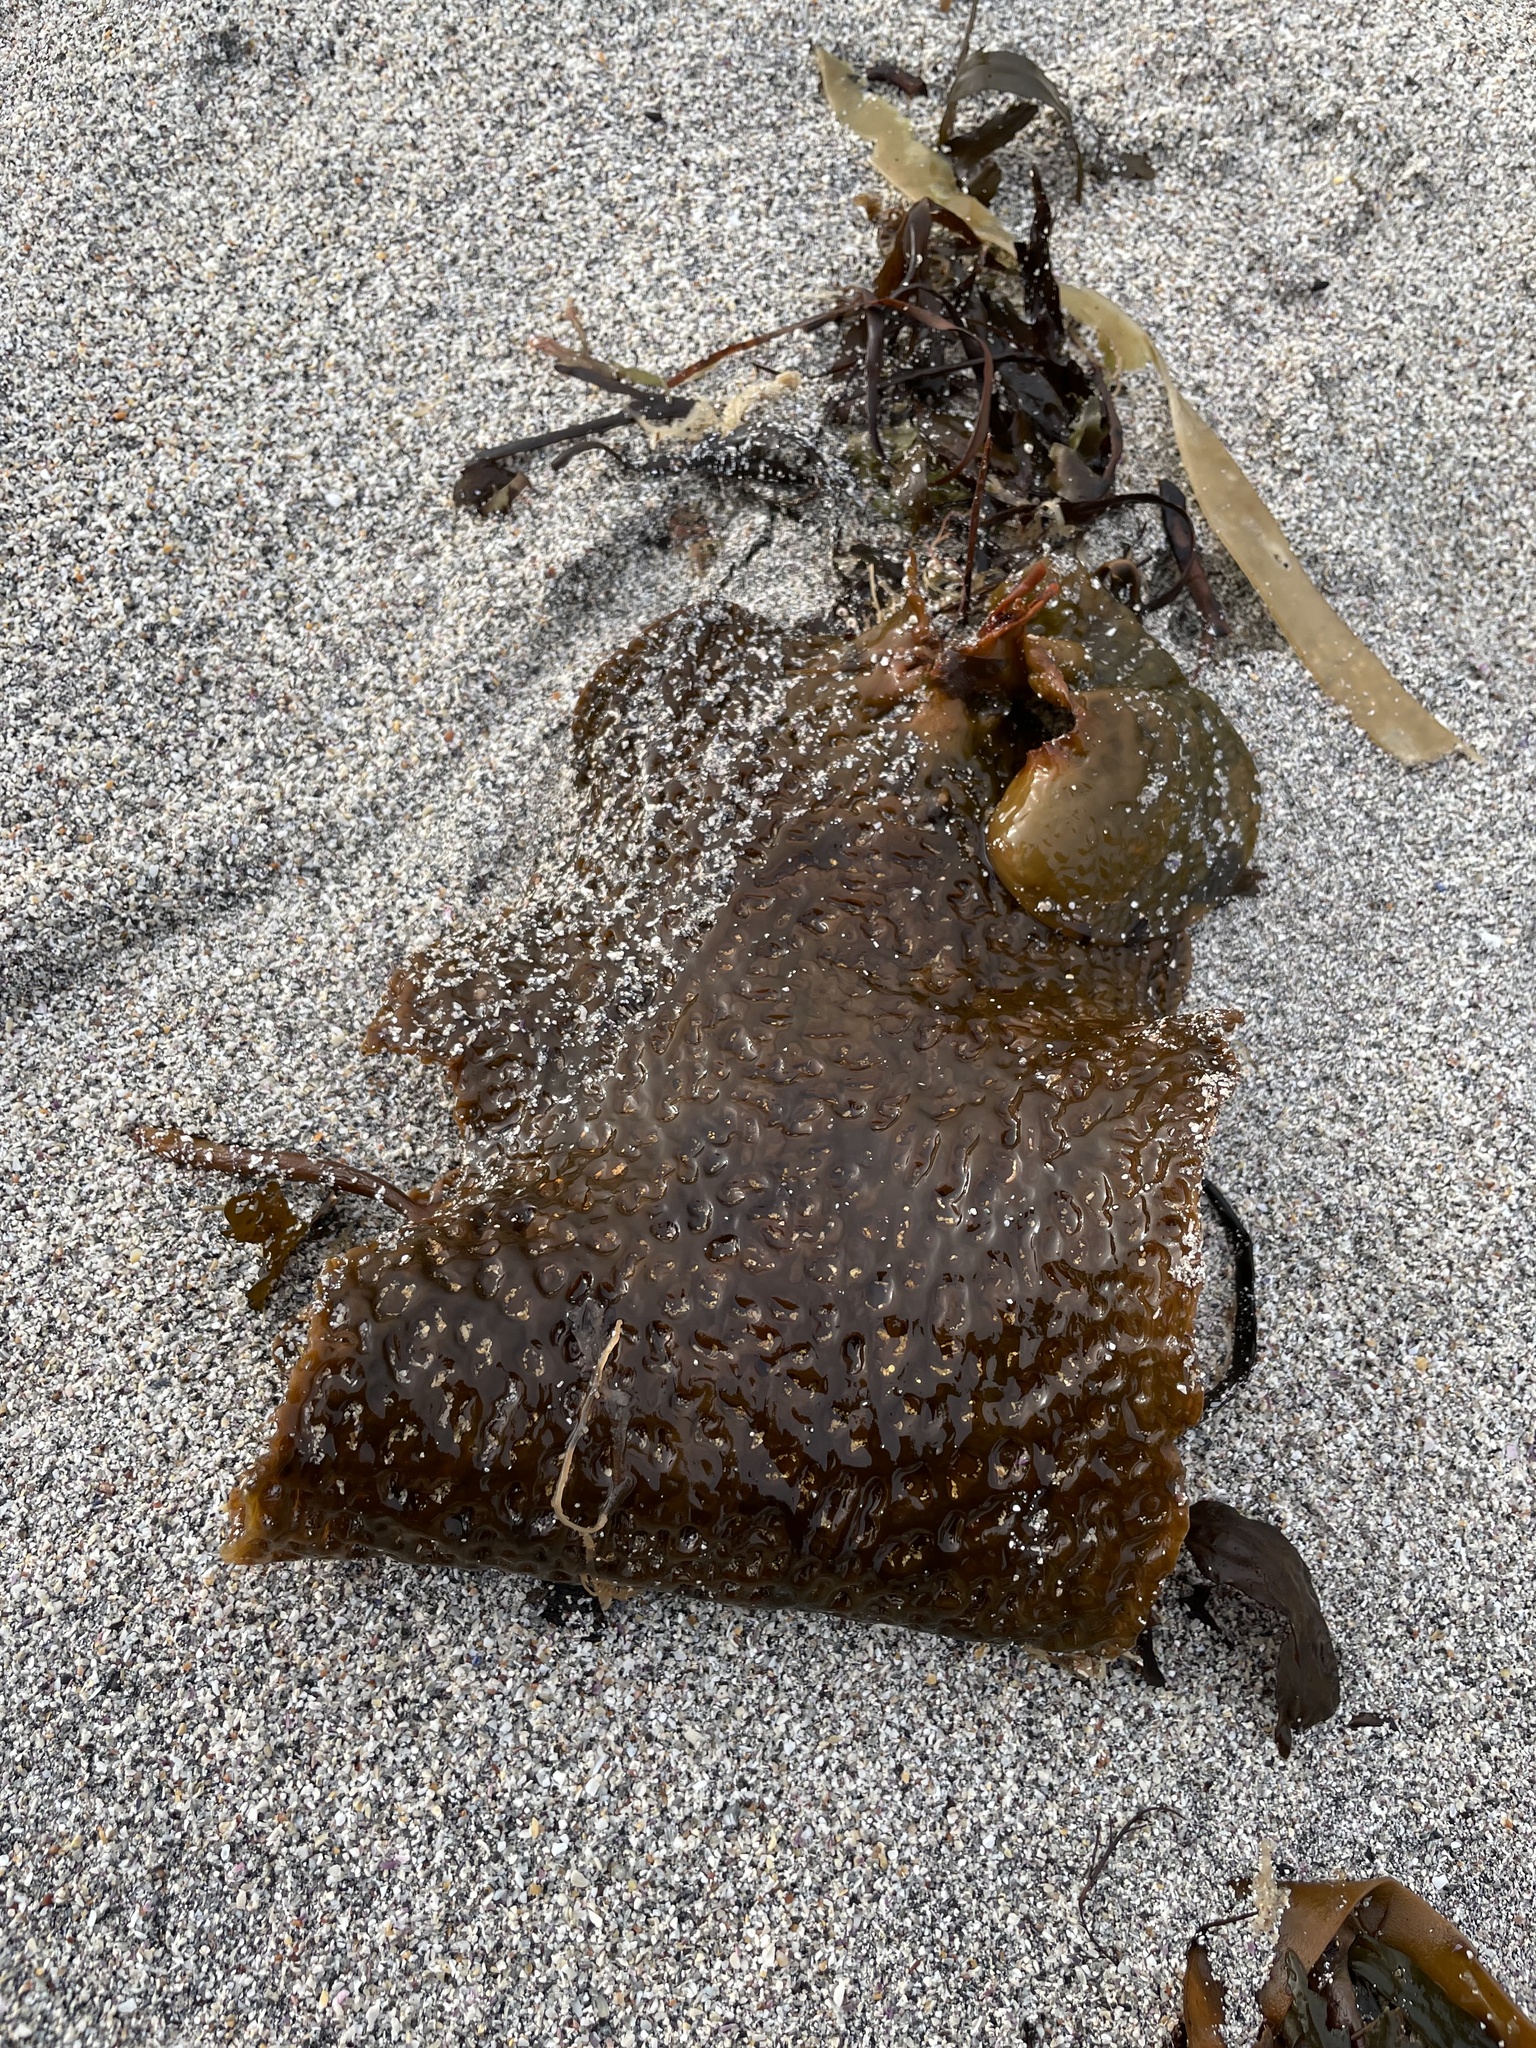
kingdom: Chromista
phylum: Ochrophyta
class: Phaeophyceae
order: Laminariales
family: Laminariaceae
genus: Saccharina
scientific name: Saccharina latissima
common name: Poor man's weather glass
